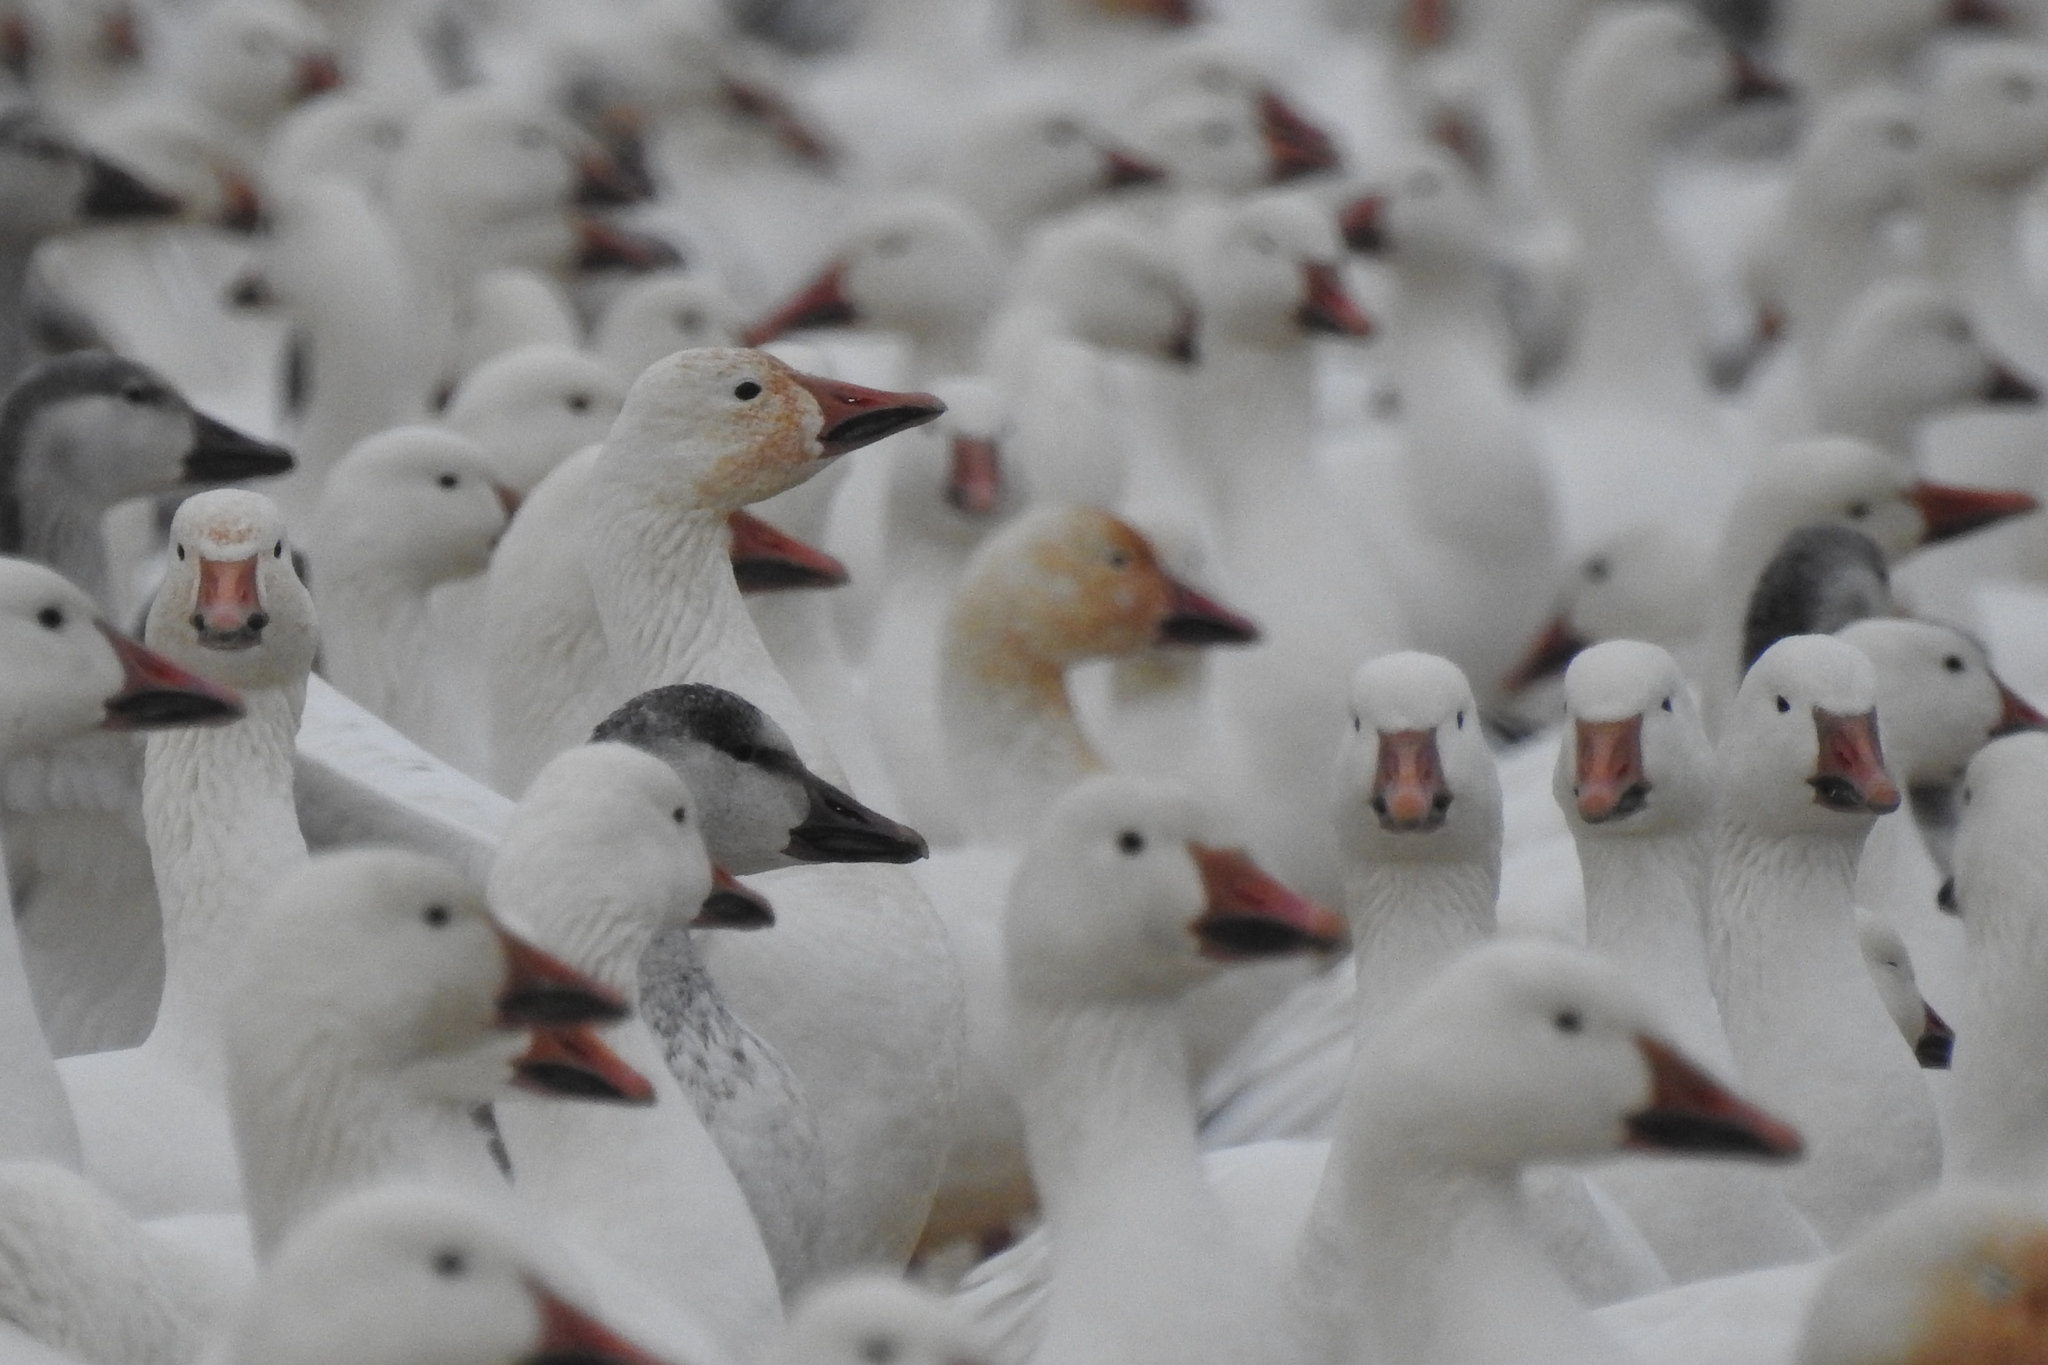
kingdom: Animalia
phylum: Chordata
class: Aves
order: Anseriformes
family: Anatidae
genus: Anser
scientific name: Anser caerulescens
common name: Snow goose
